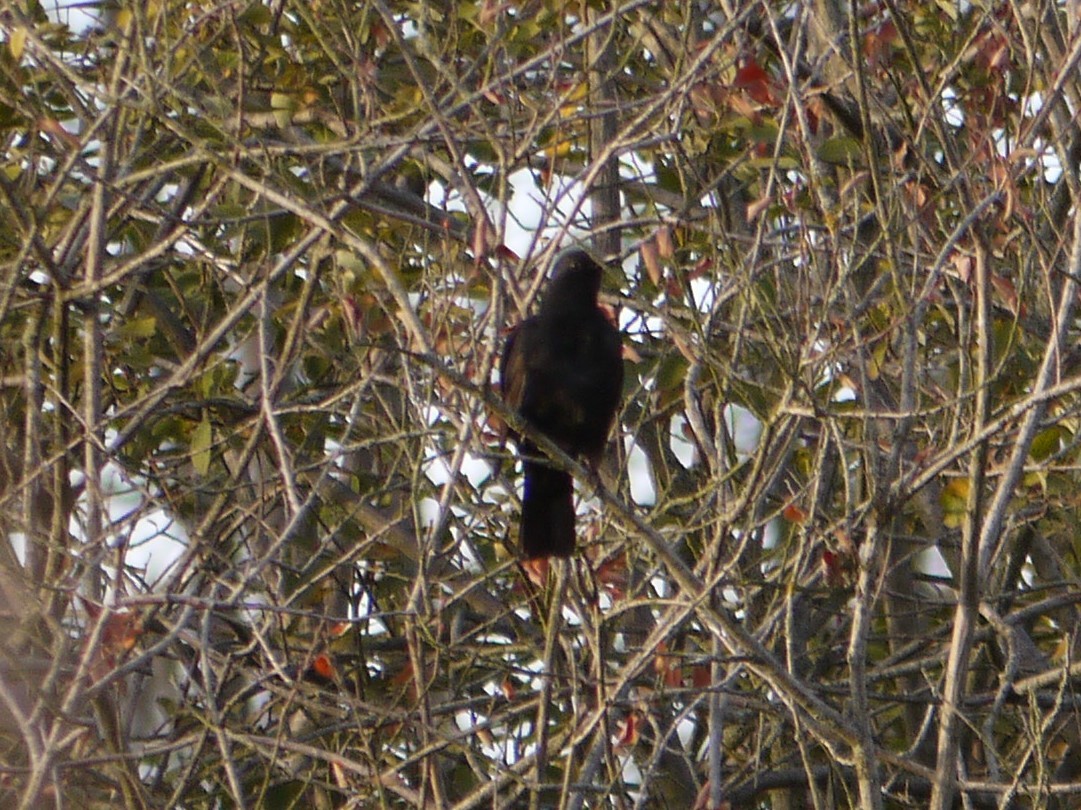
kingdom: Animalia
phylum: Chordata
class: Aves
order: Passeriformes
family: Turdidae
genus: Turdus
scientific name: Turdus merula
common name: Common blackbird
